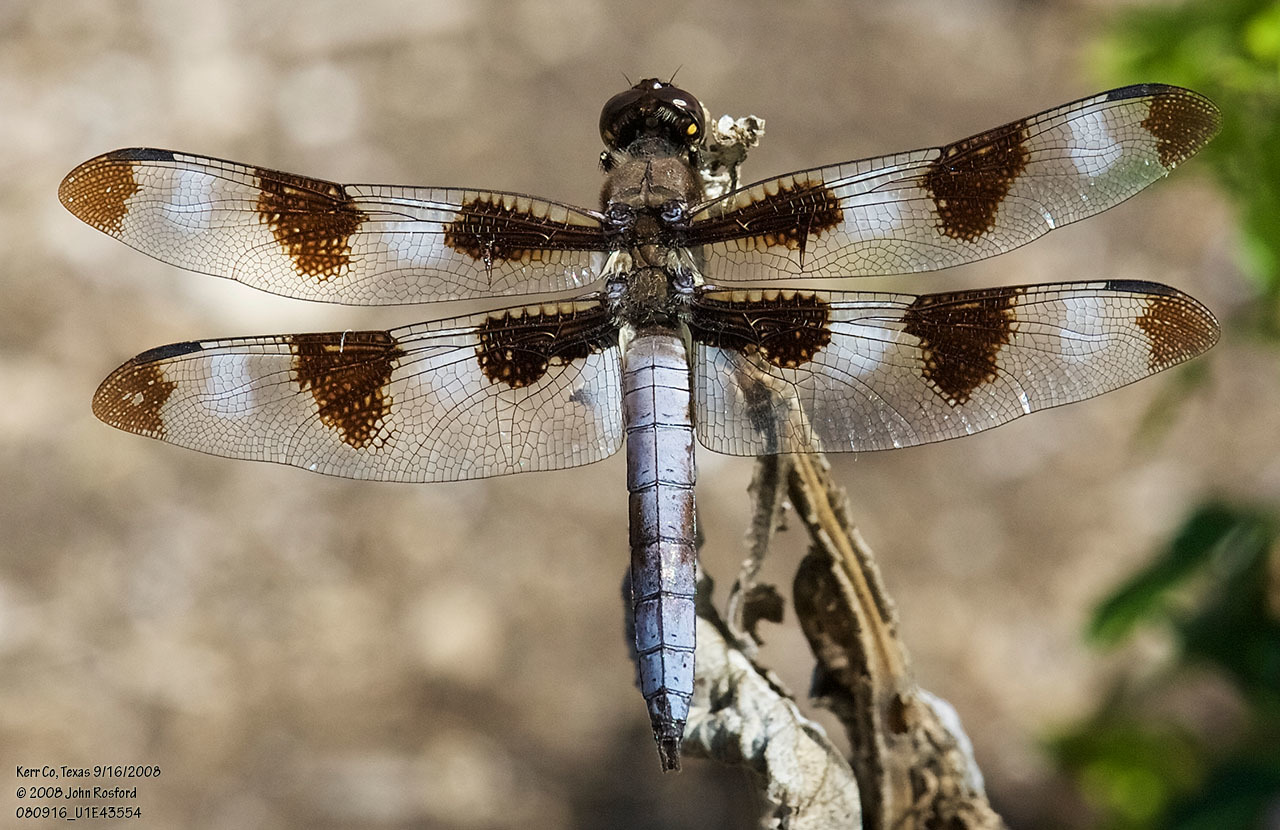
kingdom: Animalia
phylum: Arthropoda
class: Insecta
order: Odonata
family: Libellulidae
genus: Libellula
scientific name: Libellula pulchella
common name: Twelve-spotted skimmer
